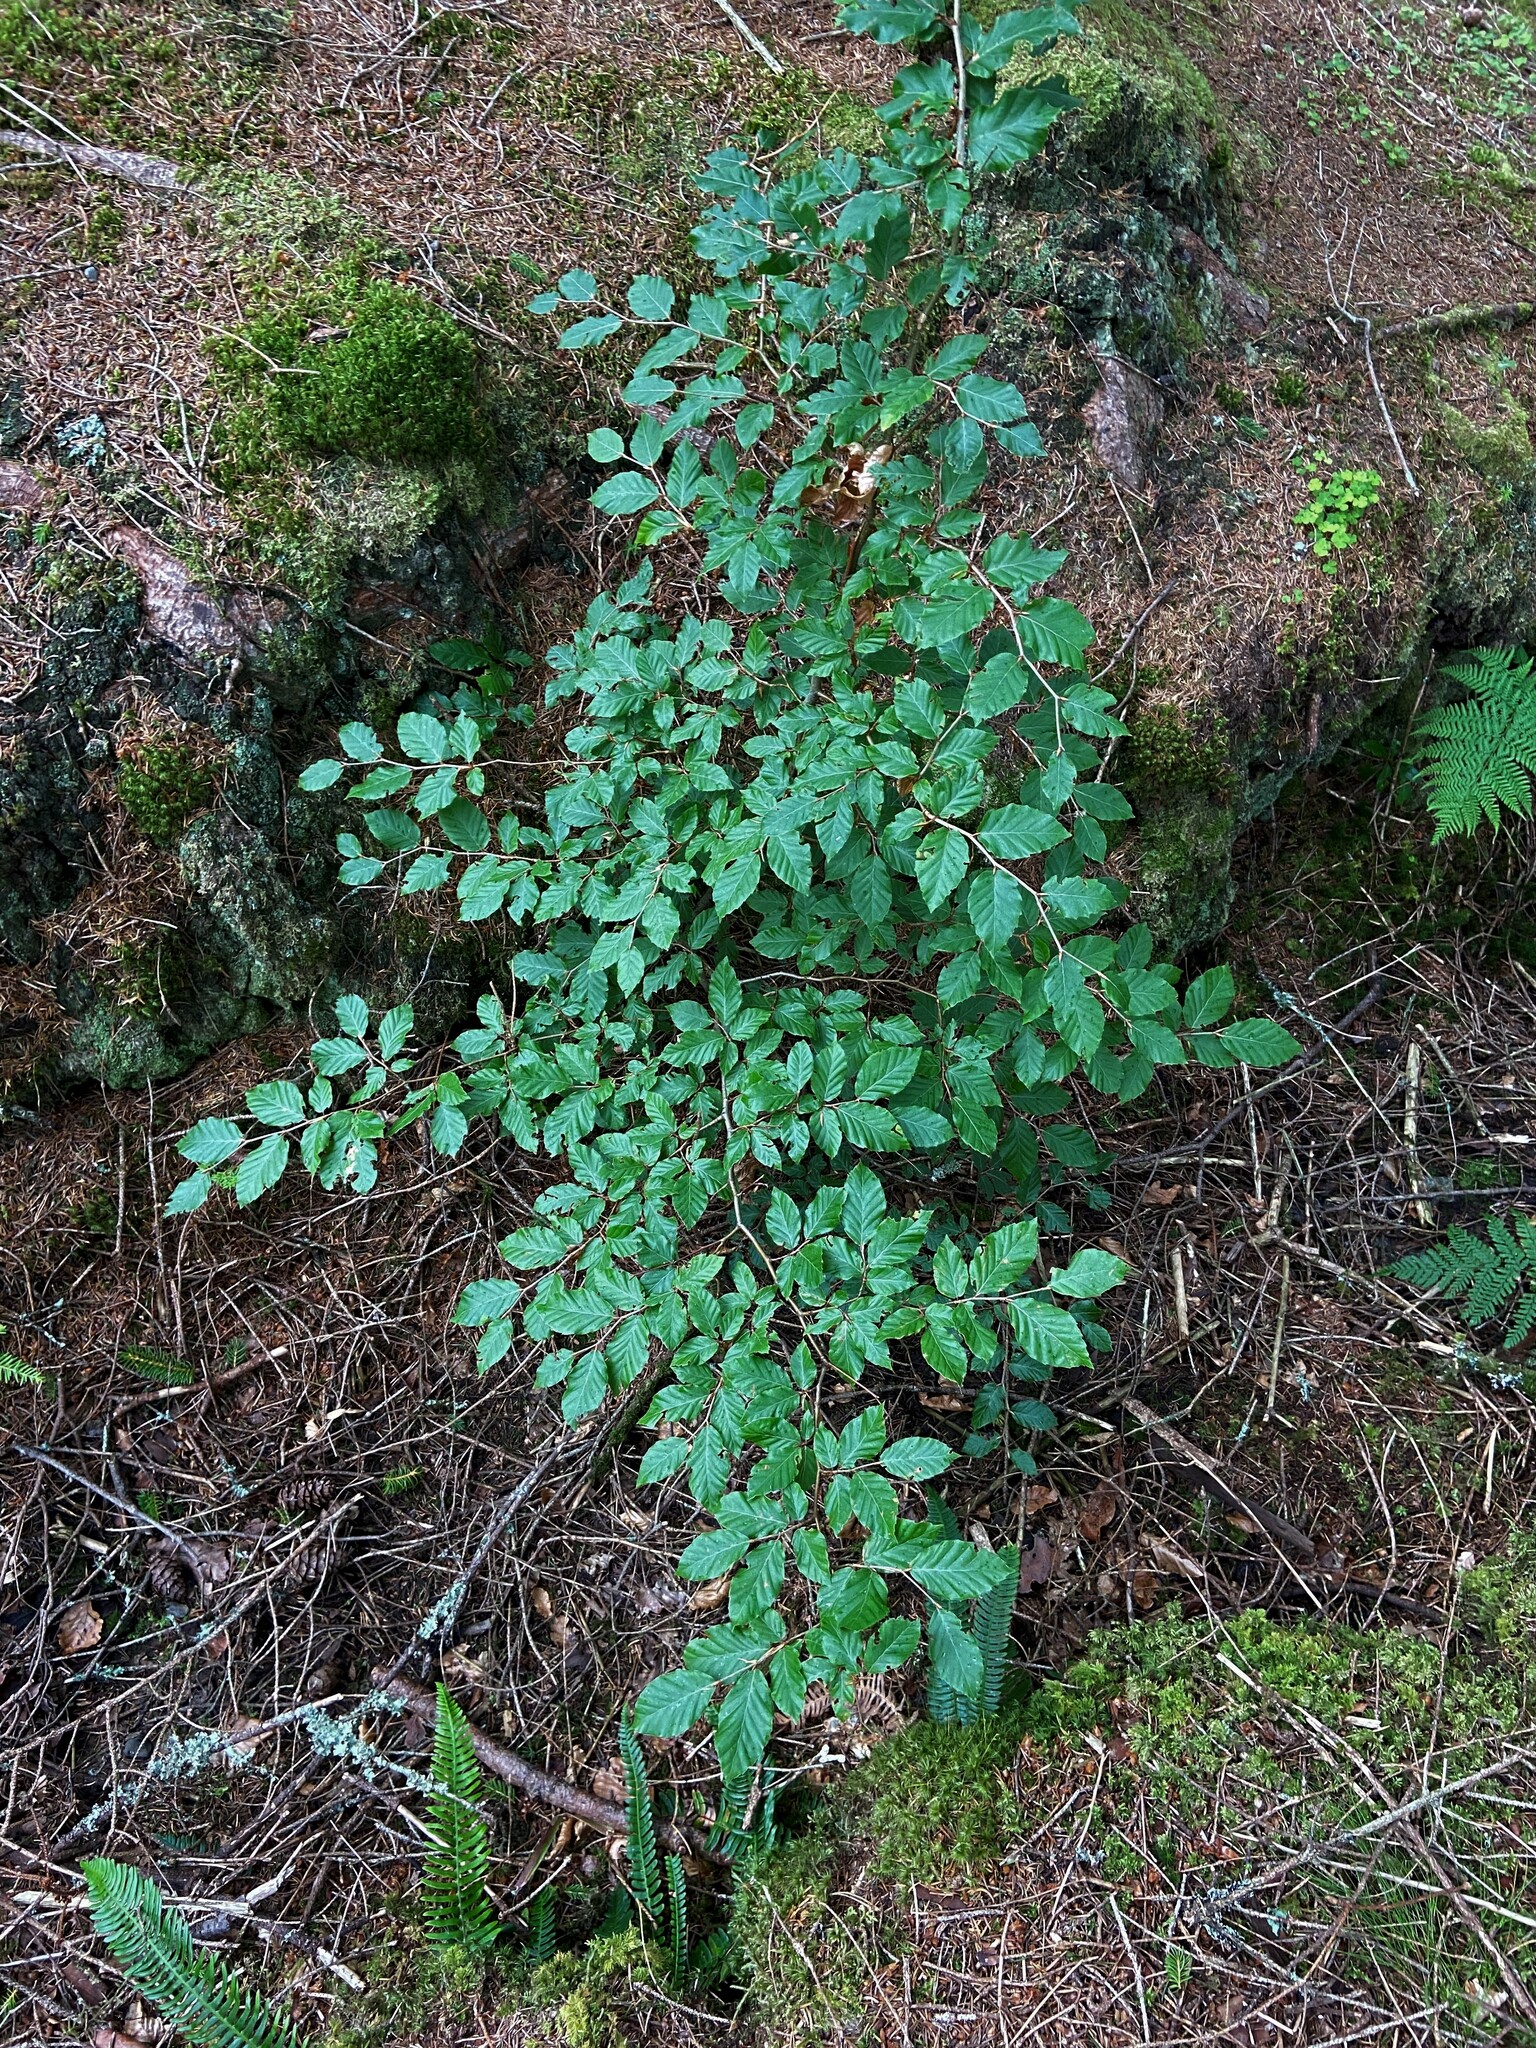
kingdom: Plantae
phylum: Tracheophyta
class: Magnoliopsida
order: Fagales
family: Fagaceae
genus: Fagus
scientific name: Fagus sylvatica
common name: Beech
